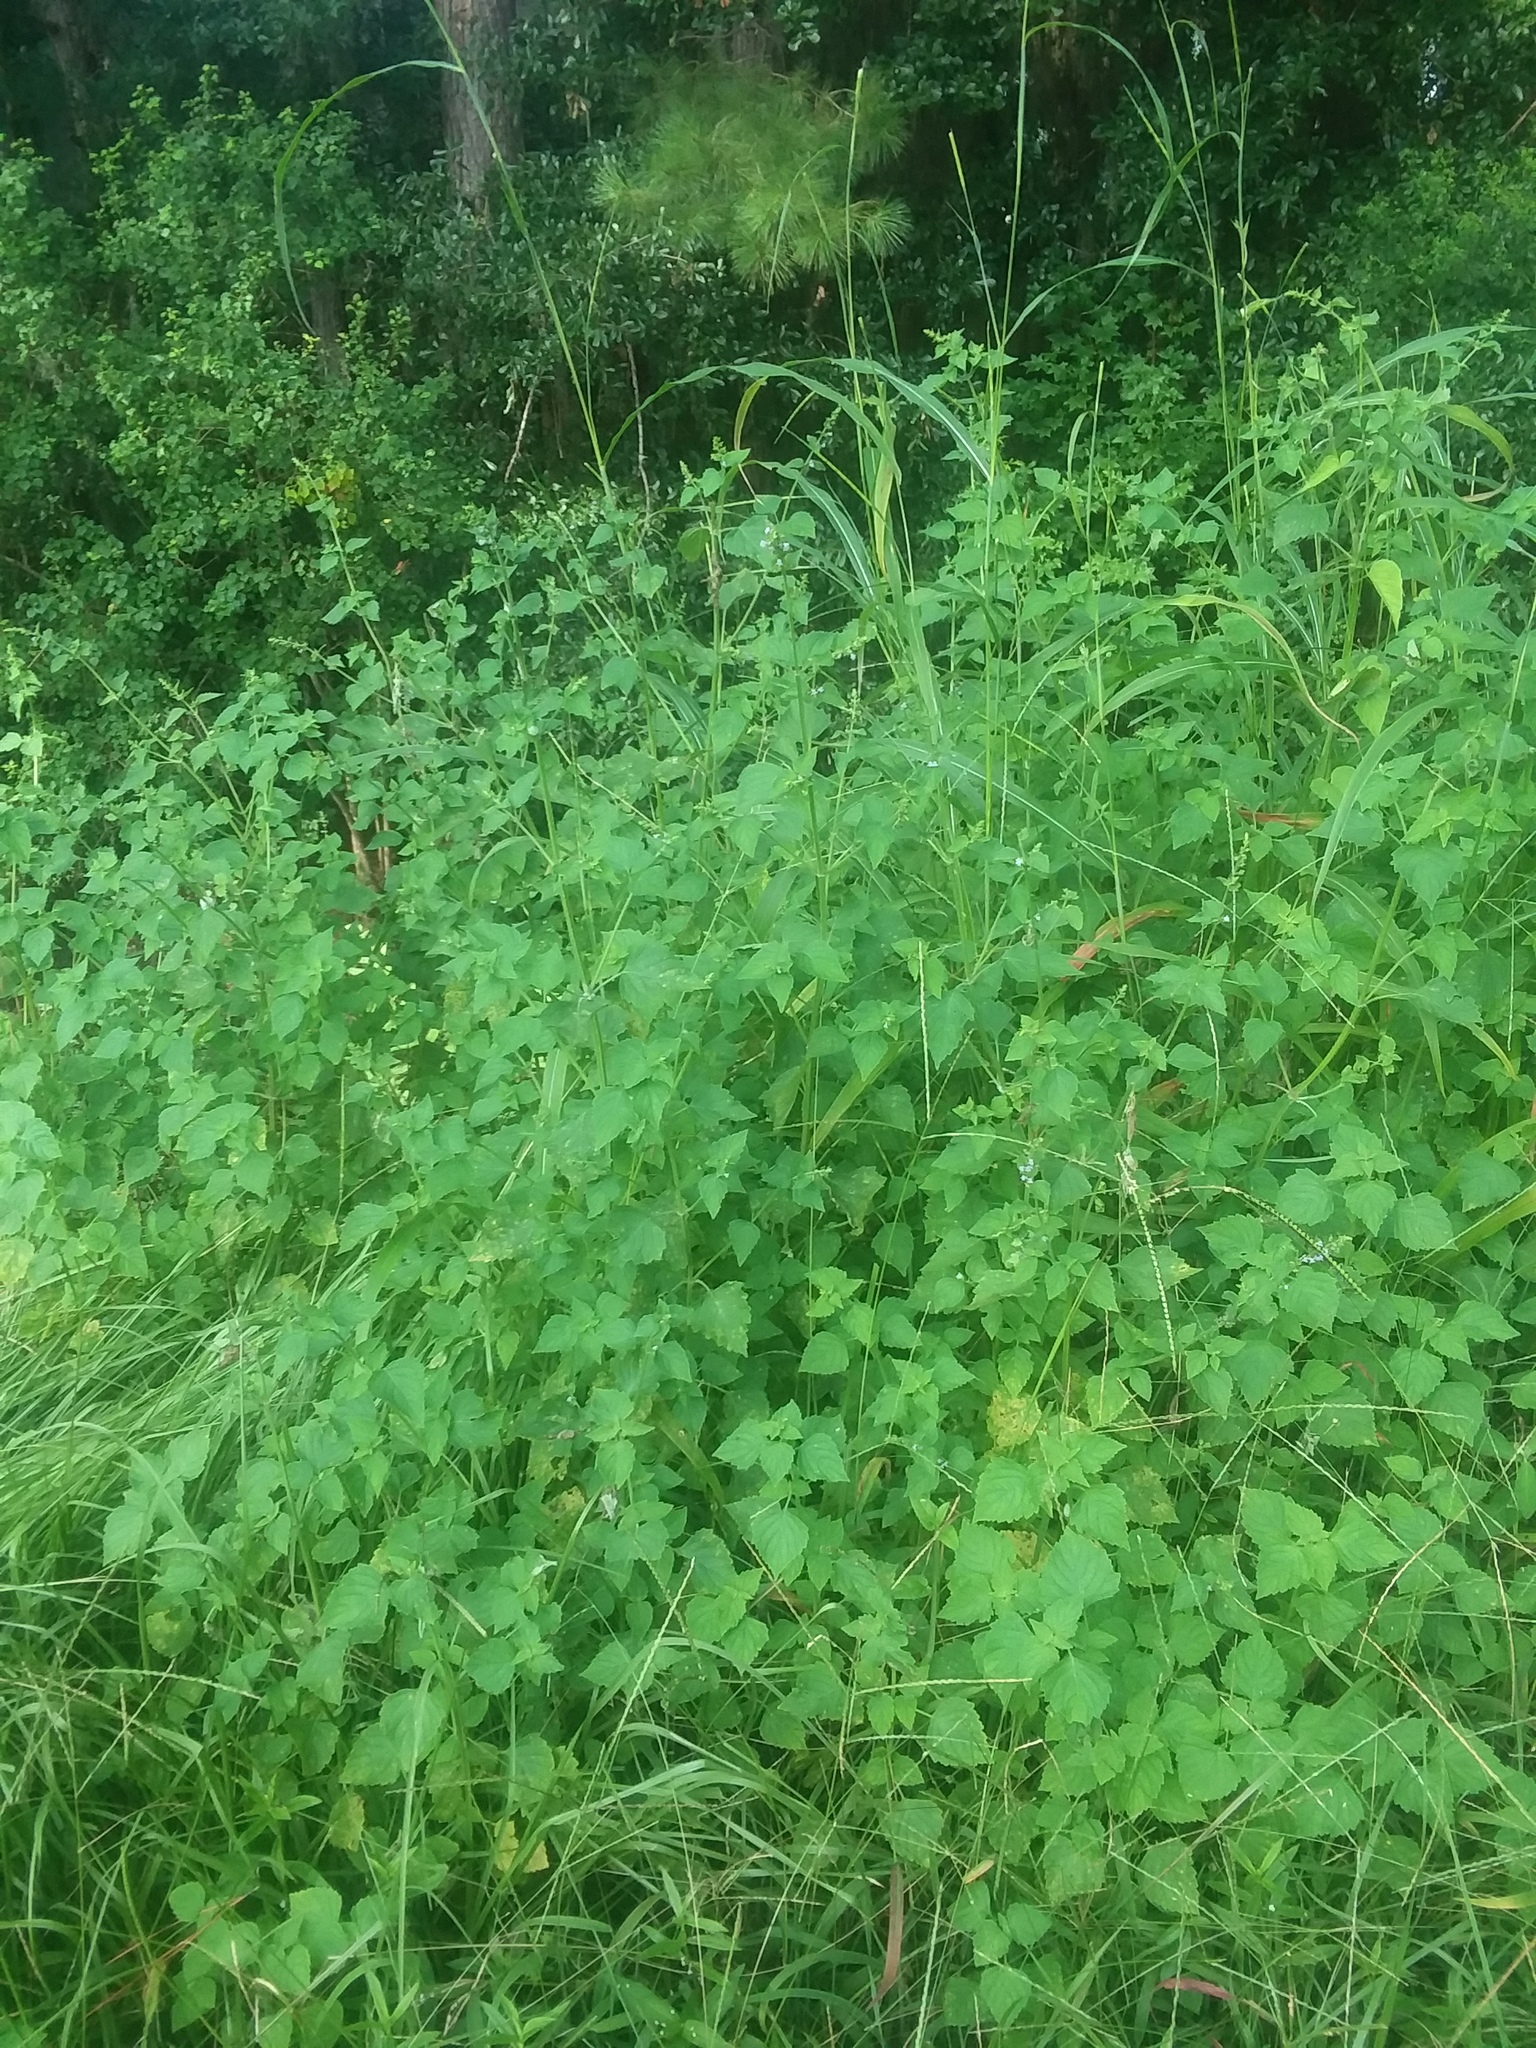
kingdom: Plantae
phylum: Tracheophyta
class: Magnoliopsida
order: Lamiales
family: Lamiaceae
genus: Cantinoa
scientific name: Cantinoa mutabilis
